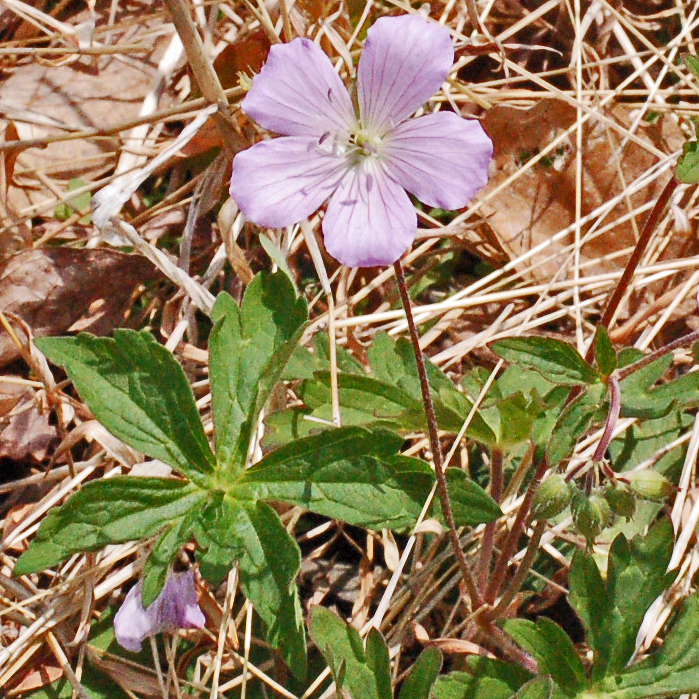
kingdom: Plantae
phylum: Tracheophyta
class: Magnoliopsida
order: Geraniales
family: Geraniaceae
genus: Geranium
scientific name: Geranium maculatum
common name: Spotted geranium
